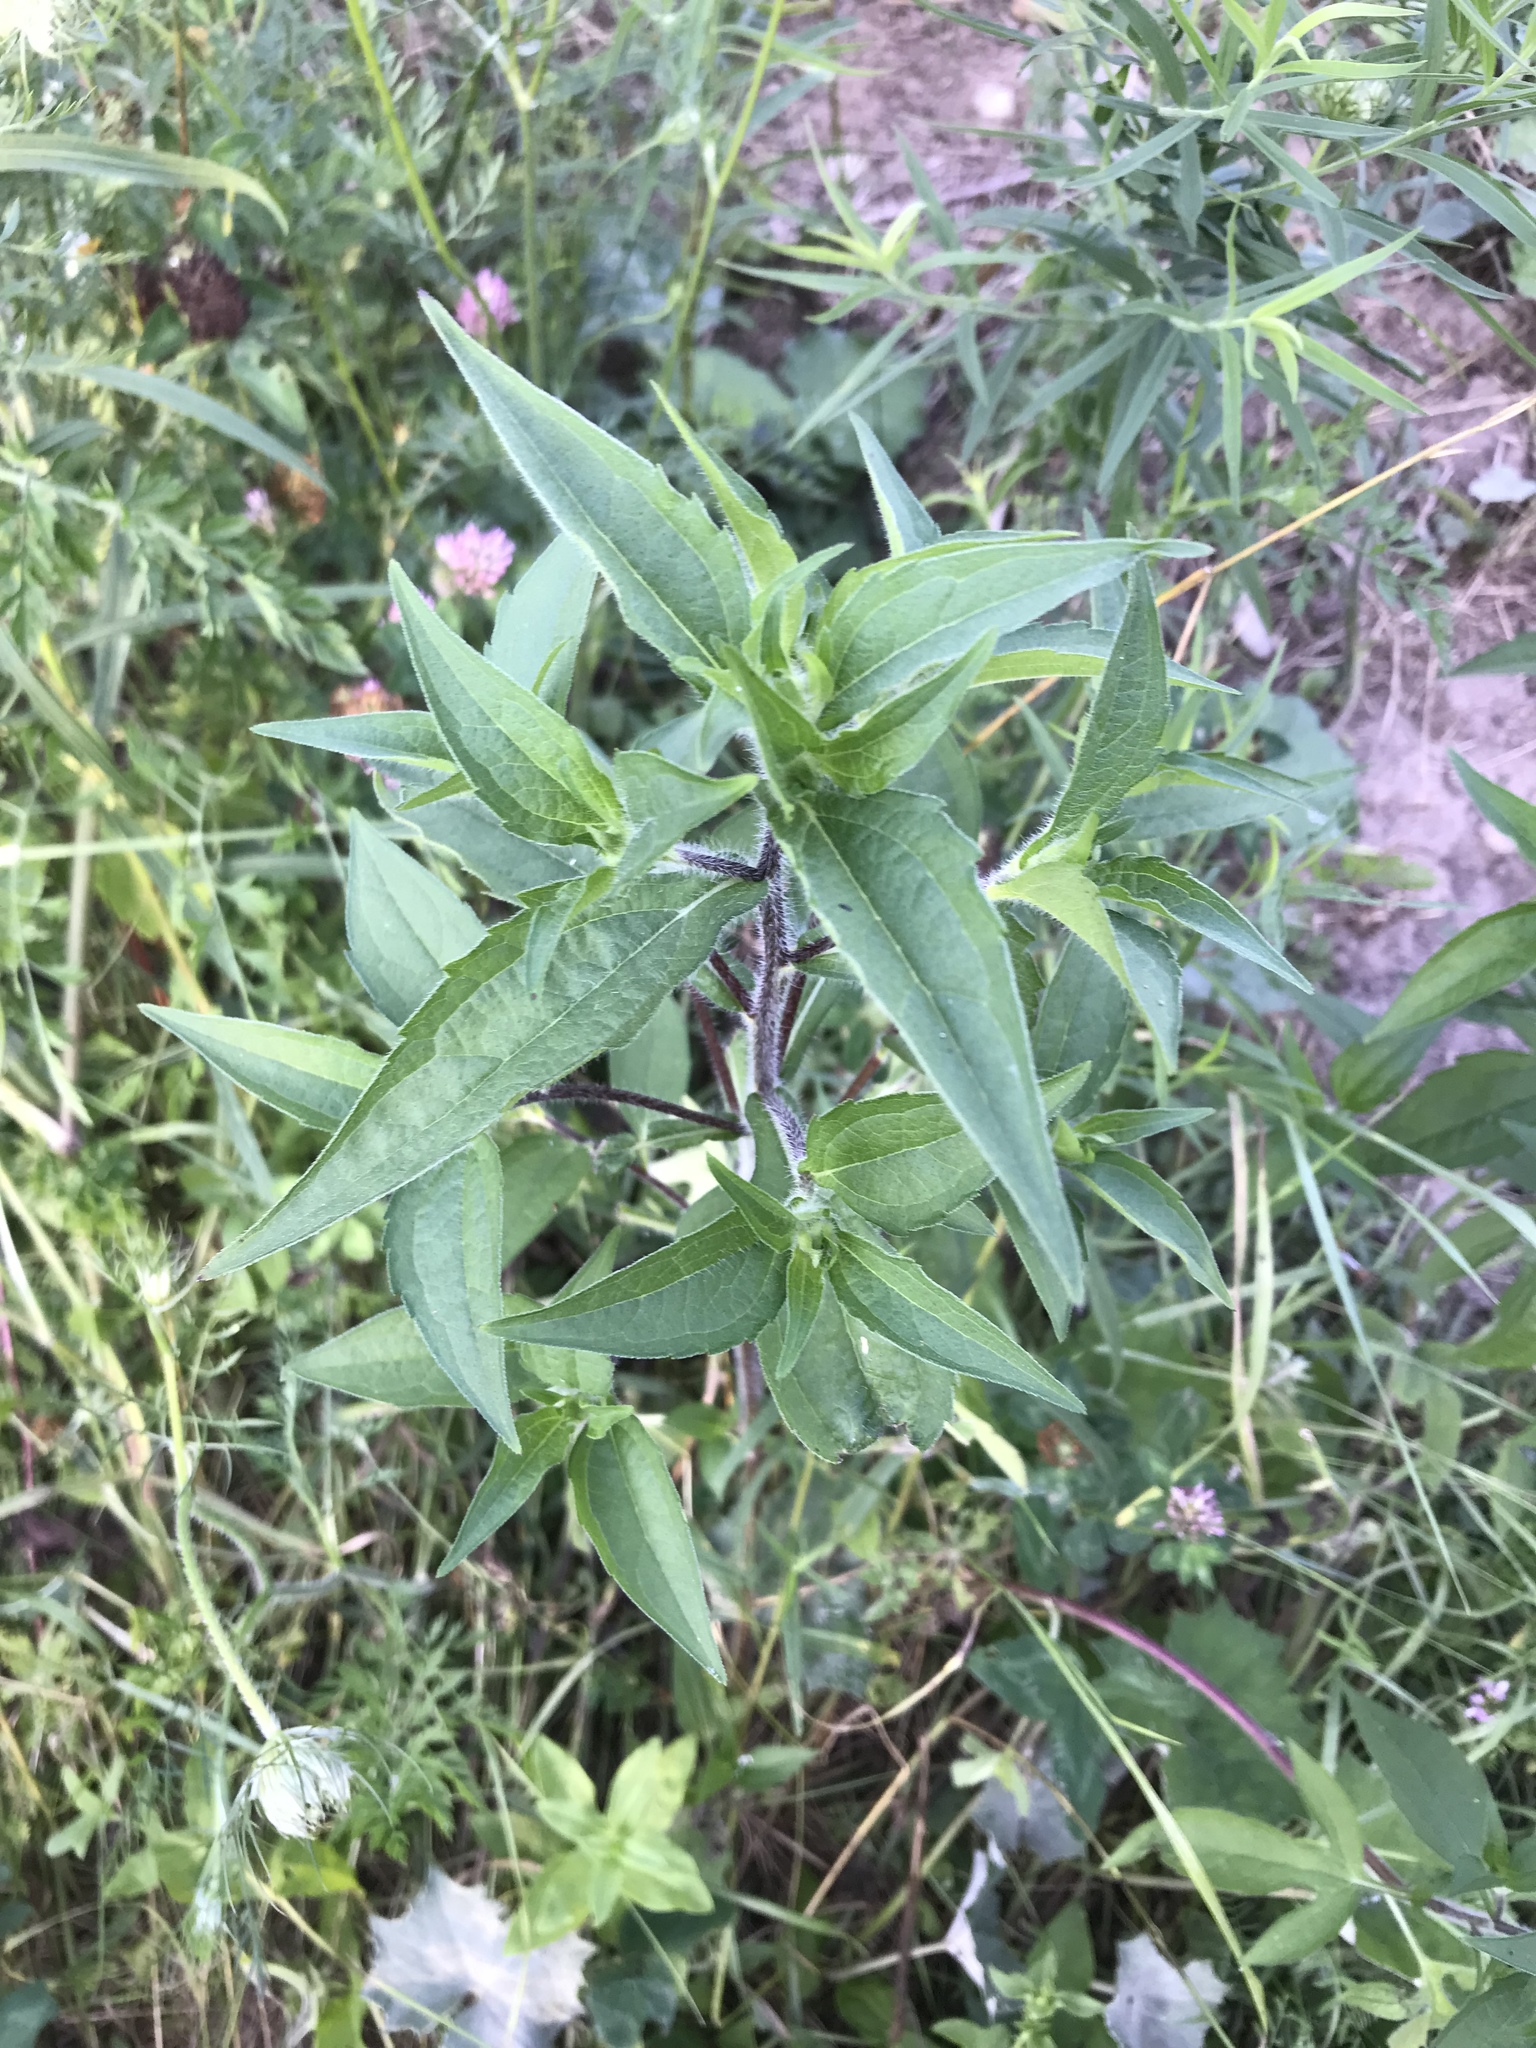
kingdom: Plantae
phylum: Tracheophyta
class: Magnoliopsida
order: Asterales
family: Asteraceae
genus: Helianthus
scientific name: Helianthus divaricatus
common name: Divergent sunflower
